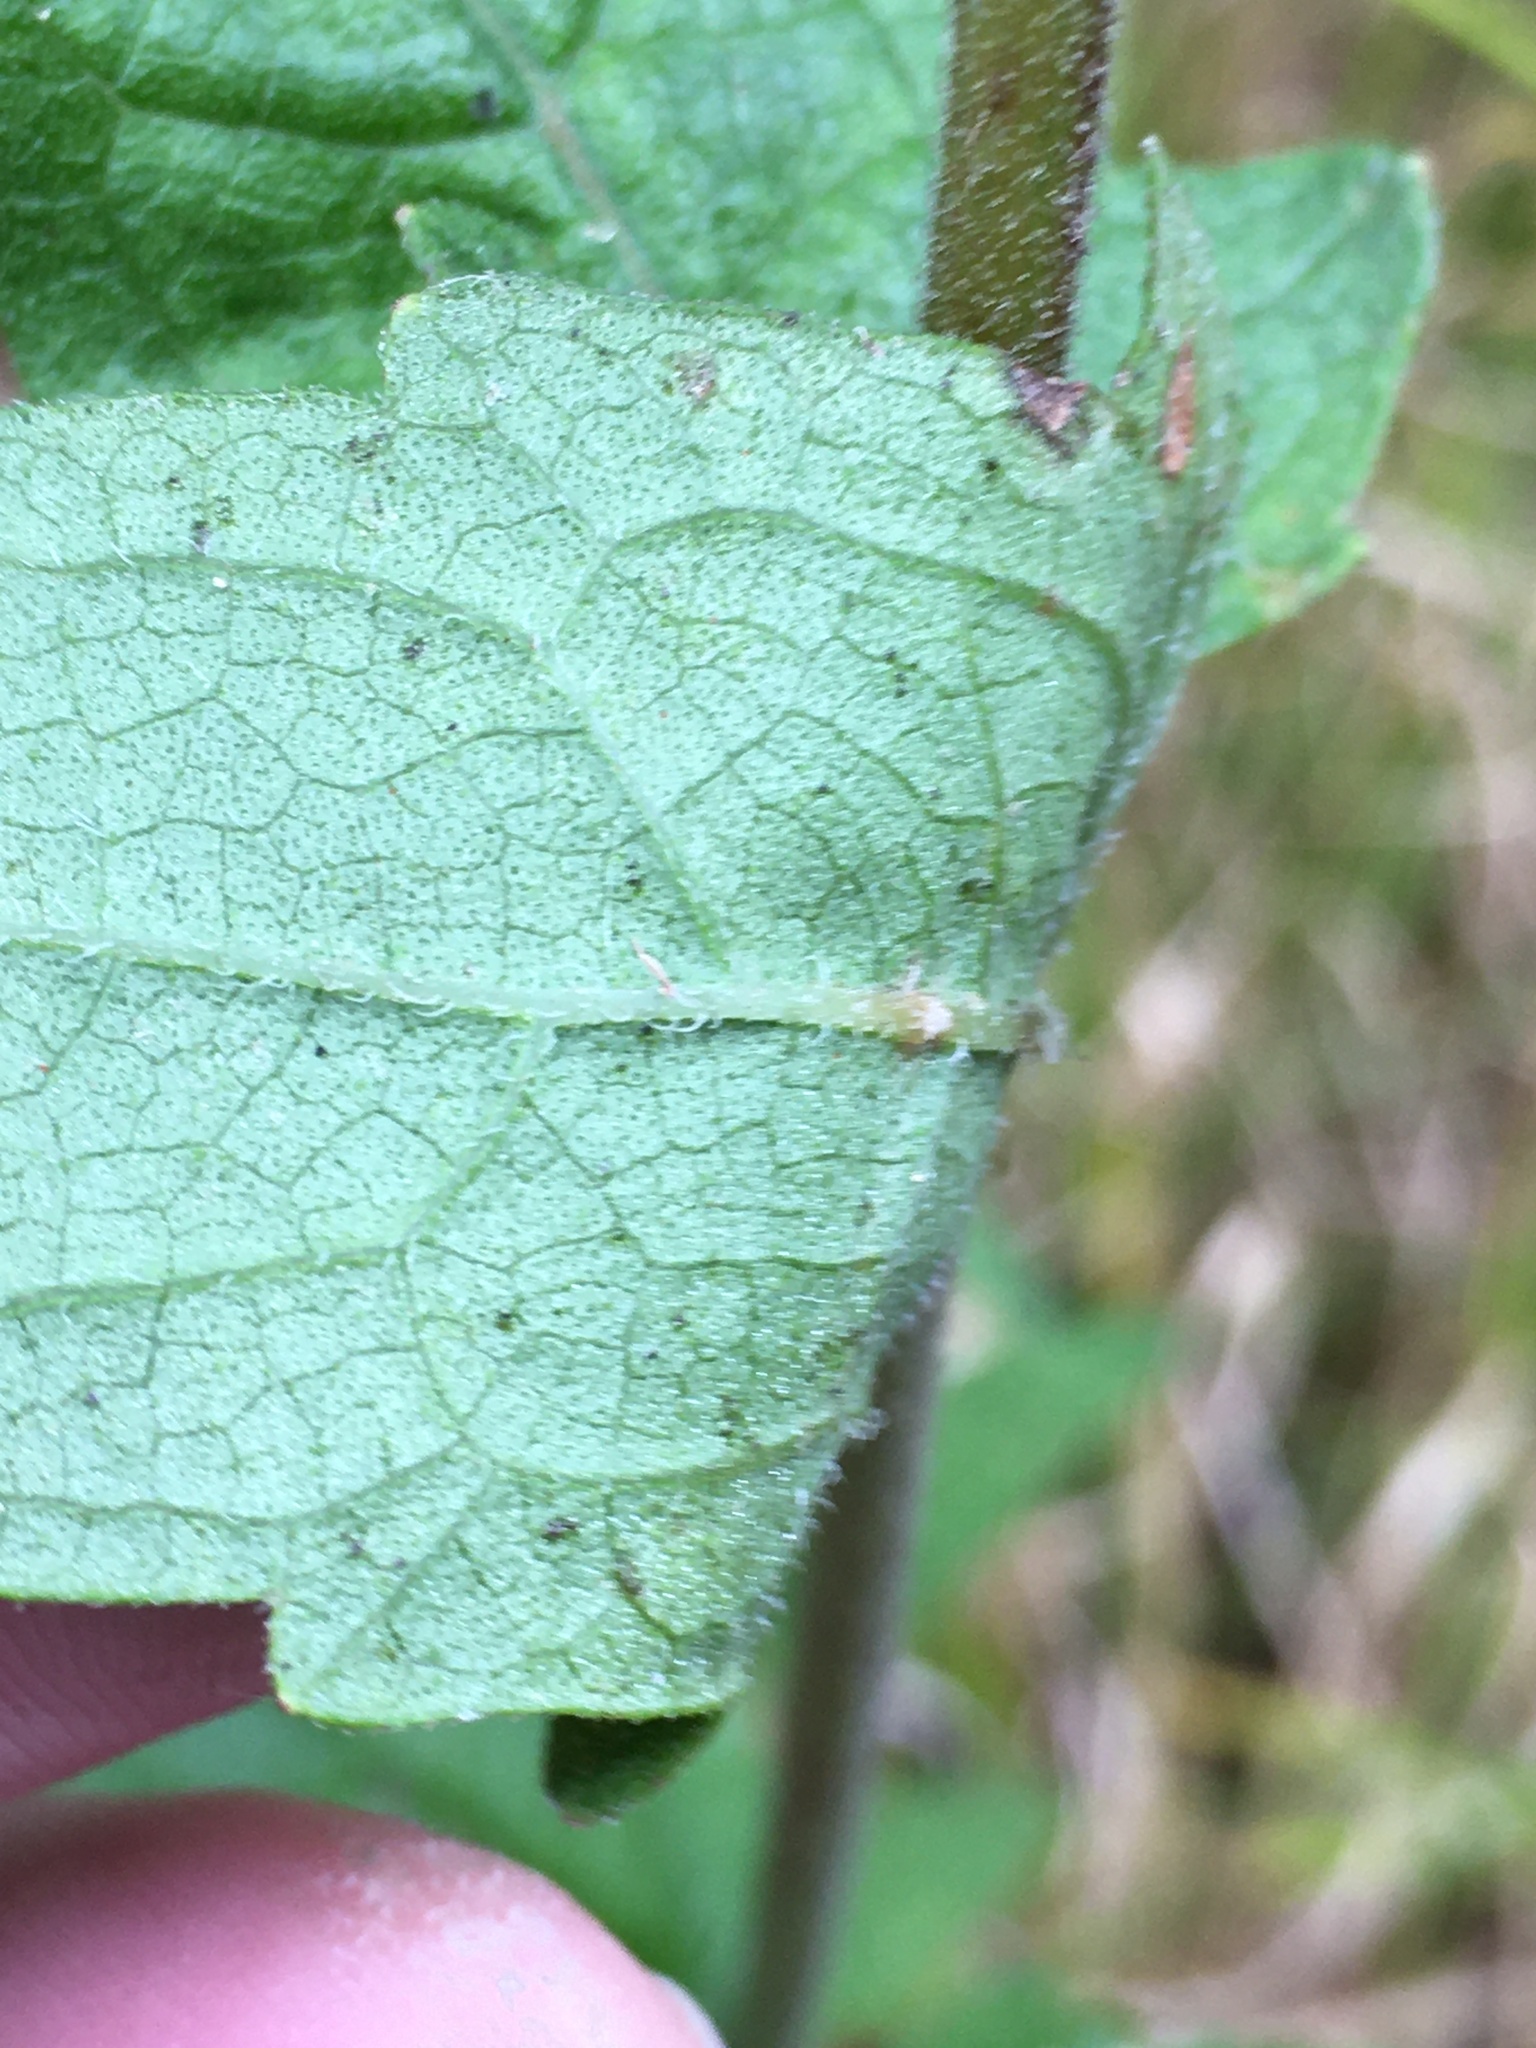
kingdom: Plantae
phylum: Tracheophyta
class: Magnoliopsida
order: Asterales
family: Asteraceae
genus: Eupatorium
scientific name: Eupatorium pilosum
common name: Rough boneset
